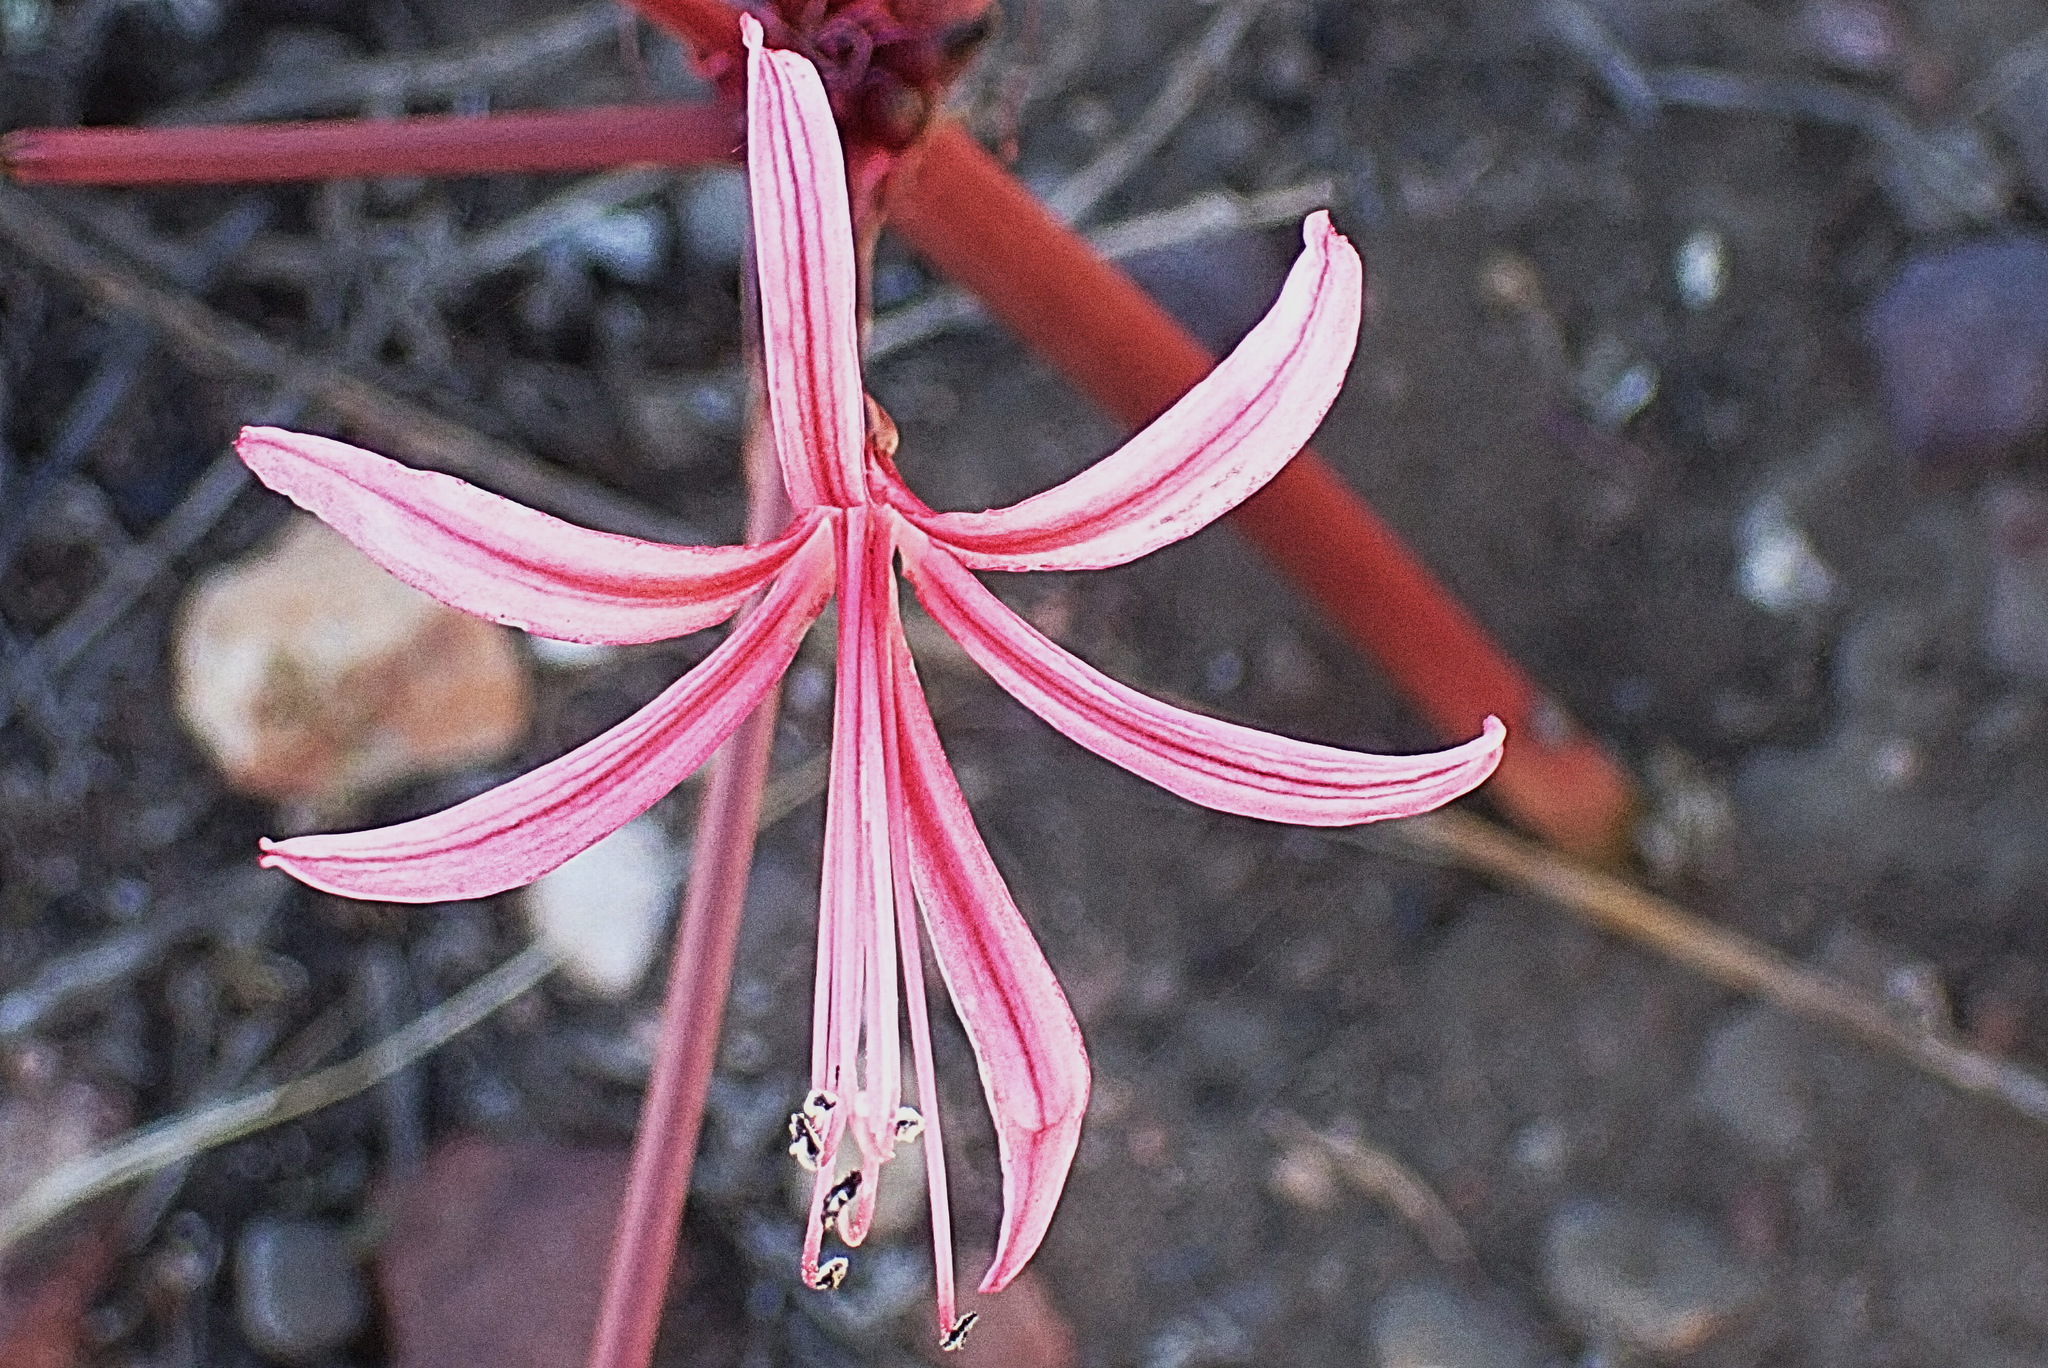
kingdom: Plantae
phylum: Tracheophyta
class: Liliopsida
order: Asparagales
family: Amaryllidaceae
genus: Brunsvigia
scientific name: Brunsvigia nervosa
